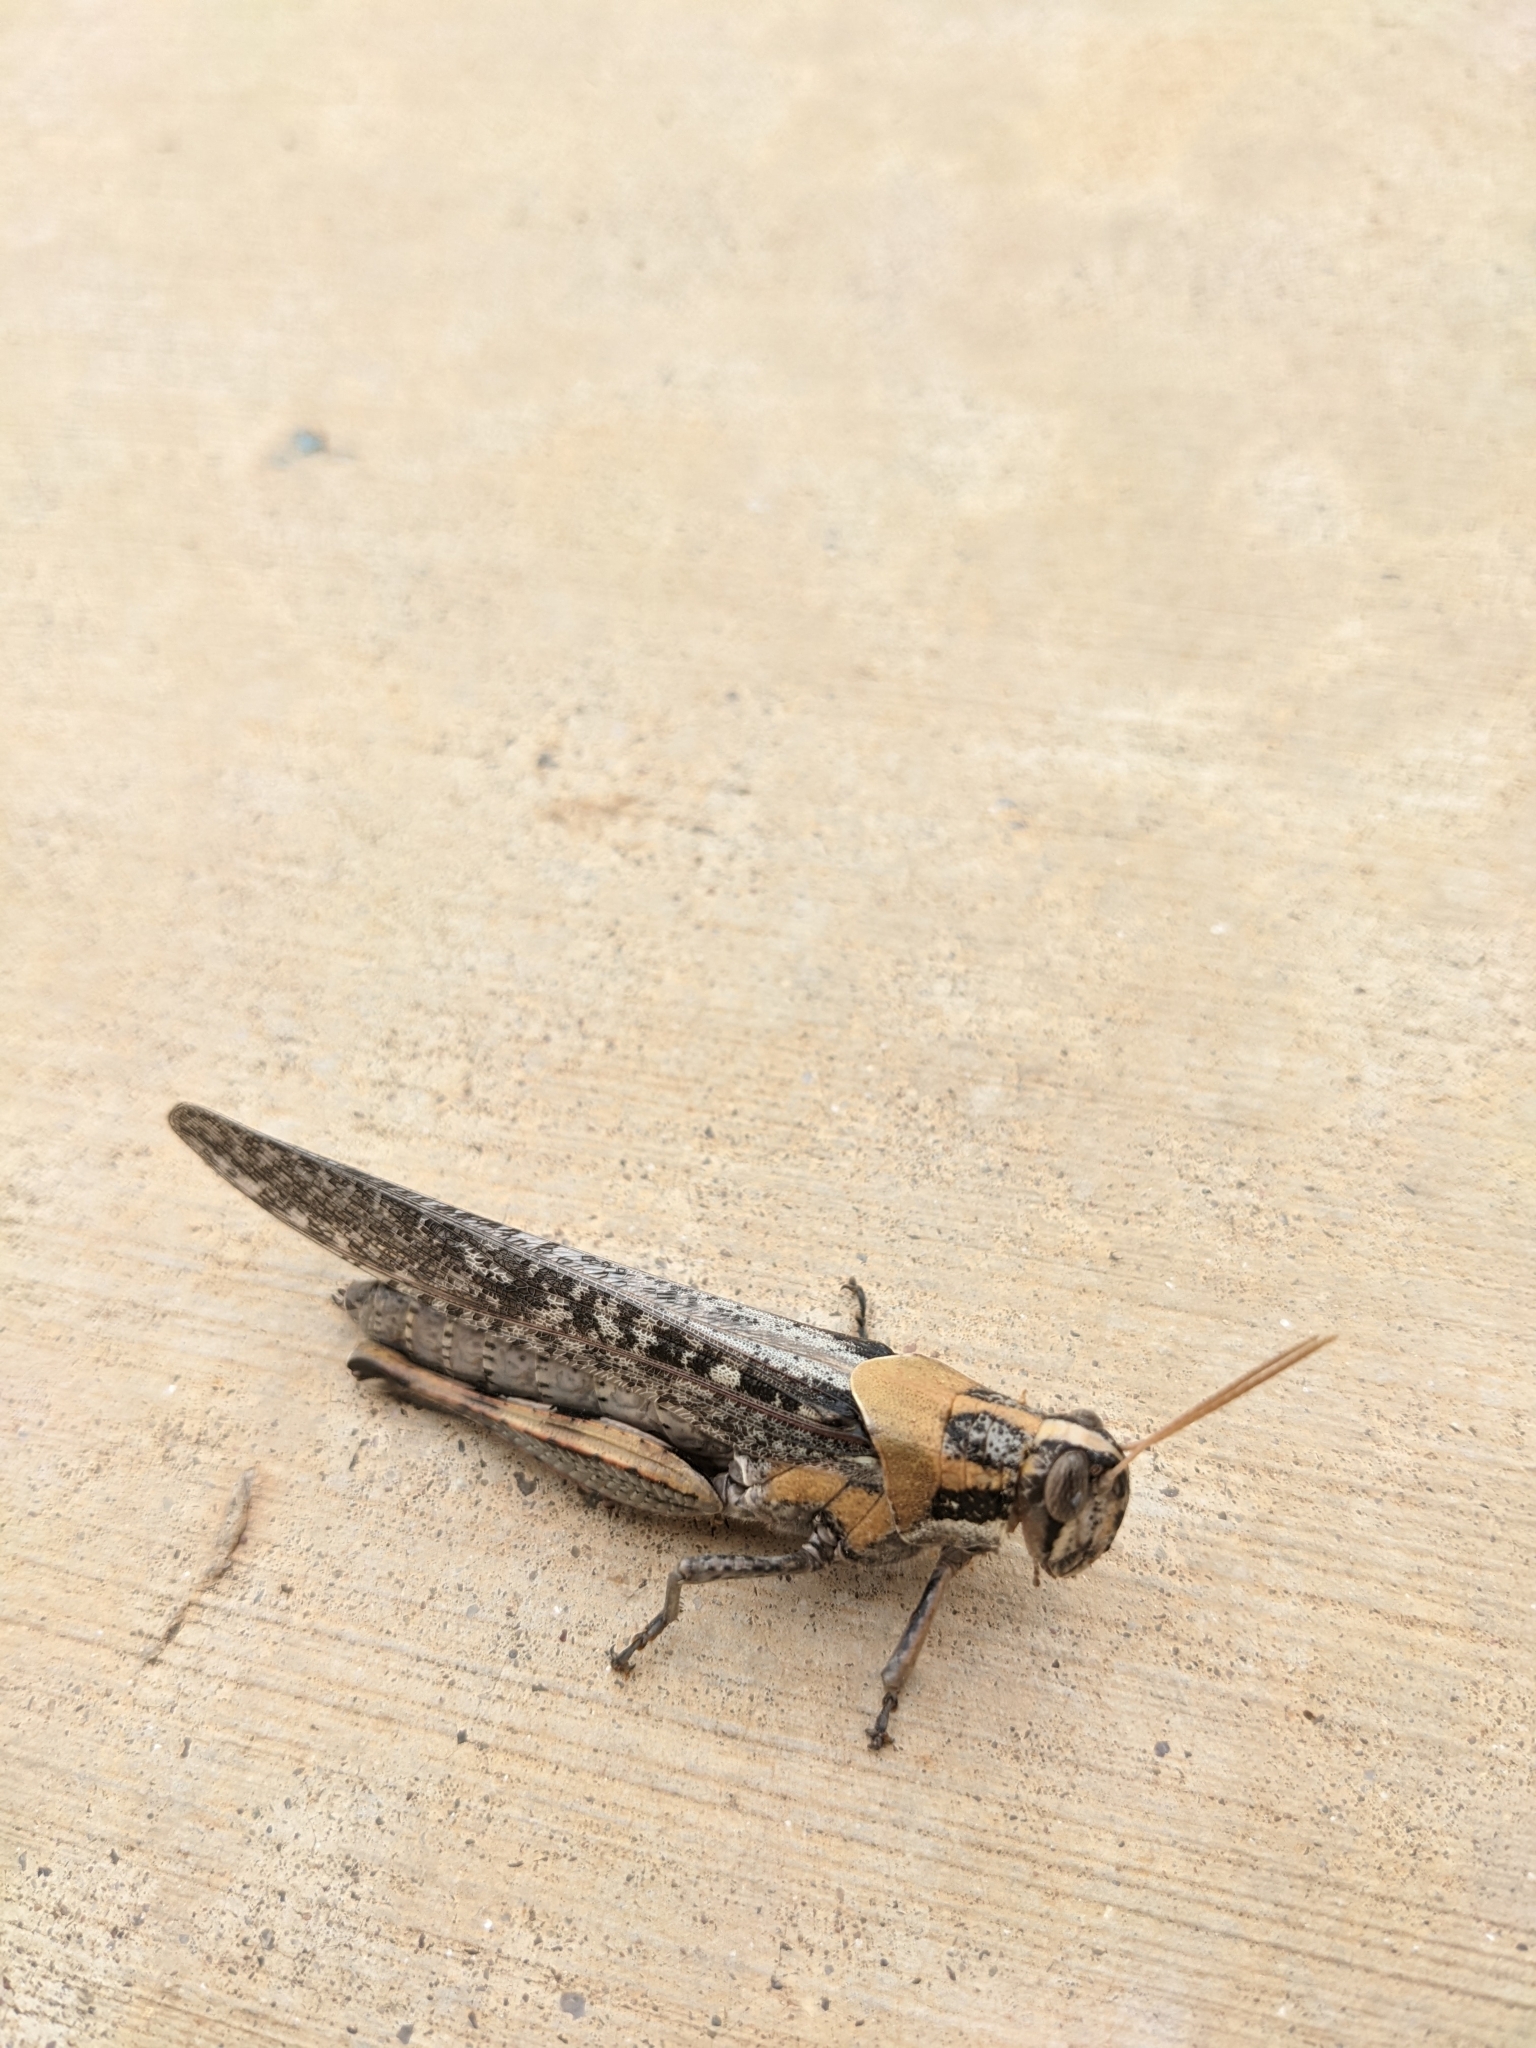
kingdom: Animalia
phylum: Arthropoda
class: Insecta
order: Orthoptera
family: Acrididae
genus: Schistocerca
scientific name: Schistocerca nitens
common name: Vagrant grasshopper
